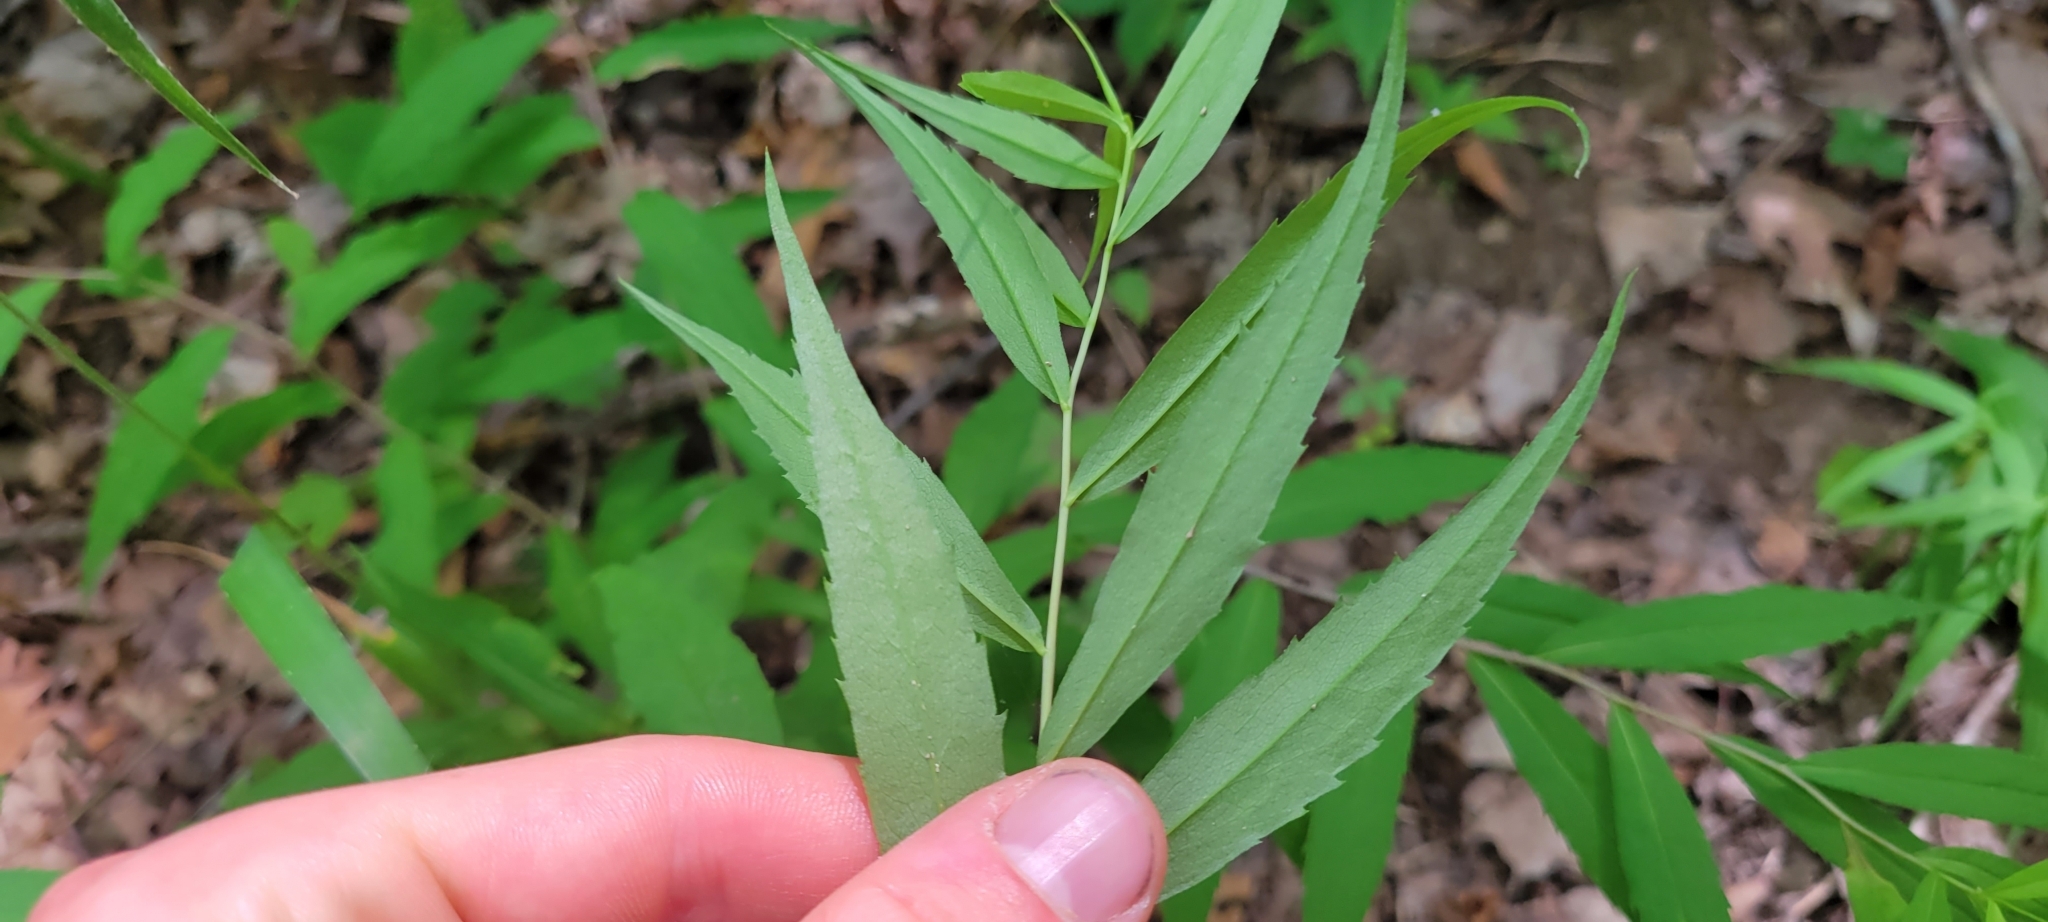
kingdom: Plantae
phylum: Tracheophyta
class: Magnoliopsida
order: Asterales
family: Asteraceae
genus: Solidago
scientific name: Solidago caesia
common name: Woodland goldenrod
